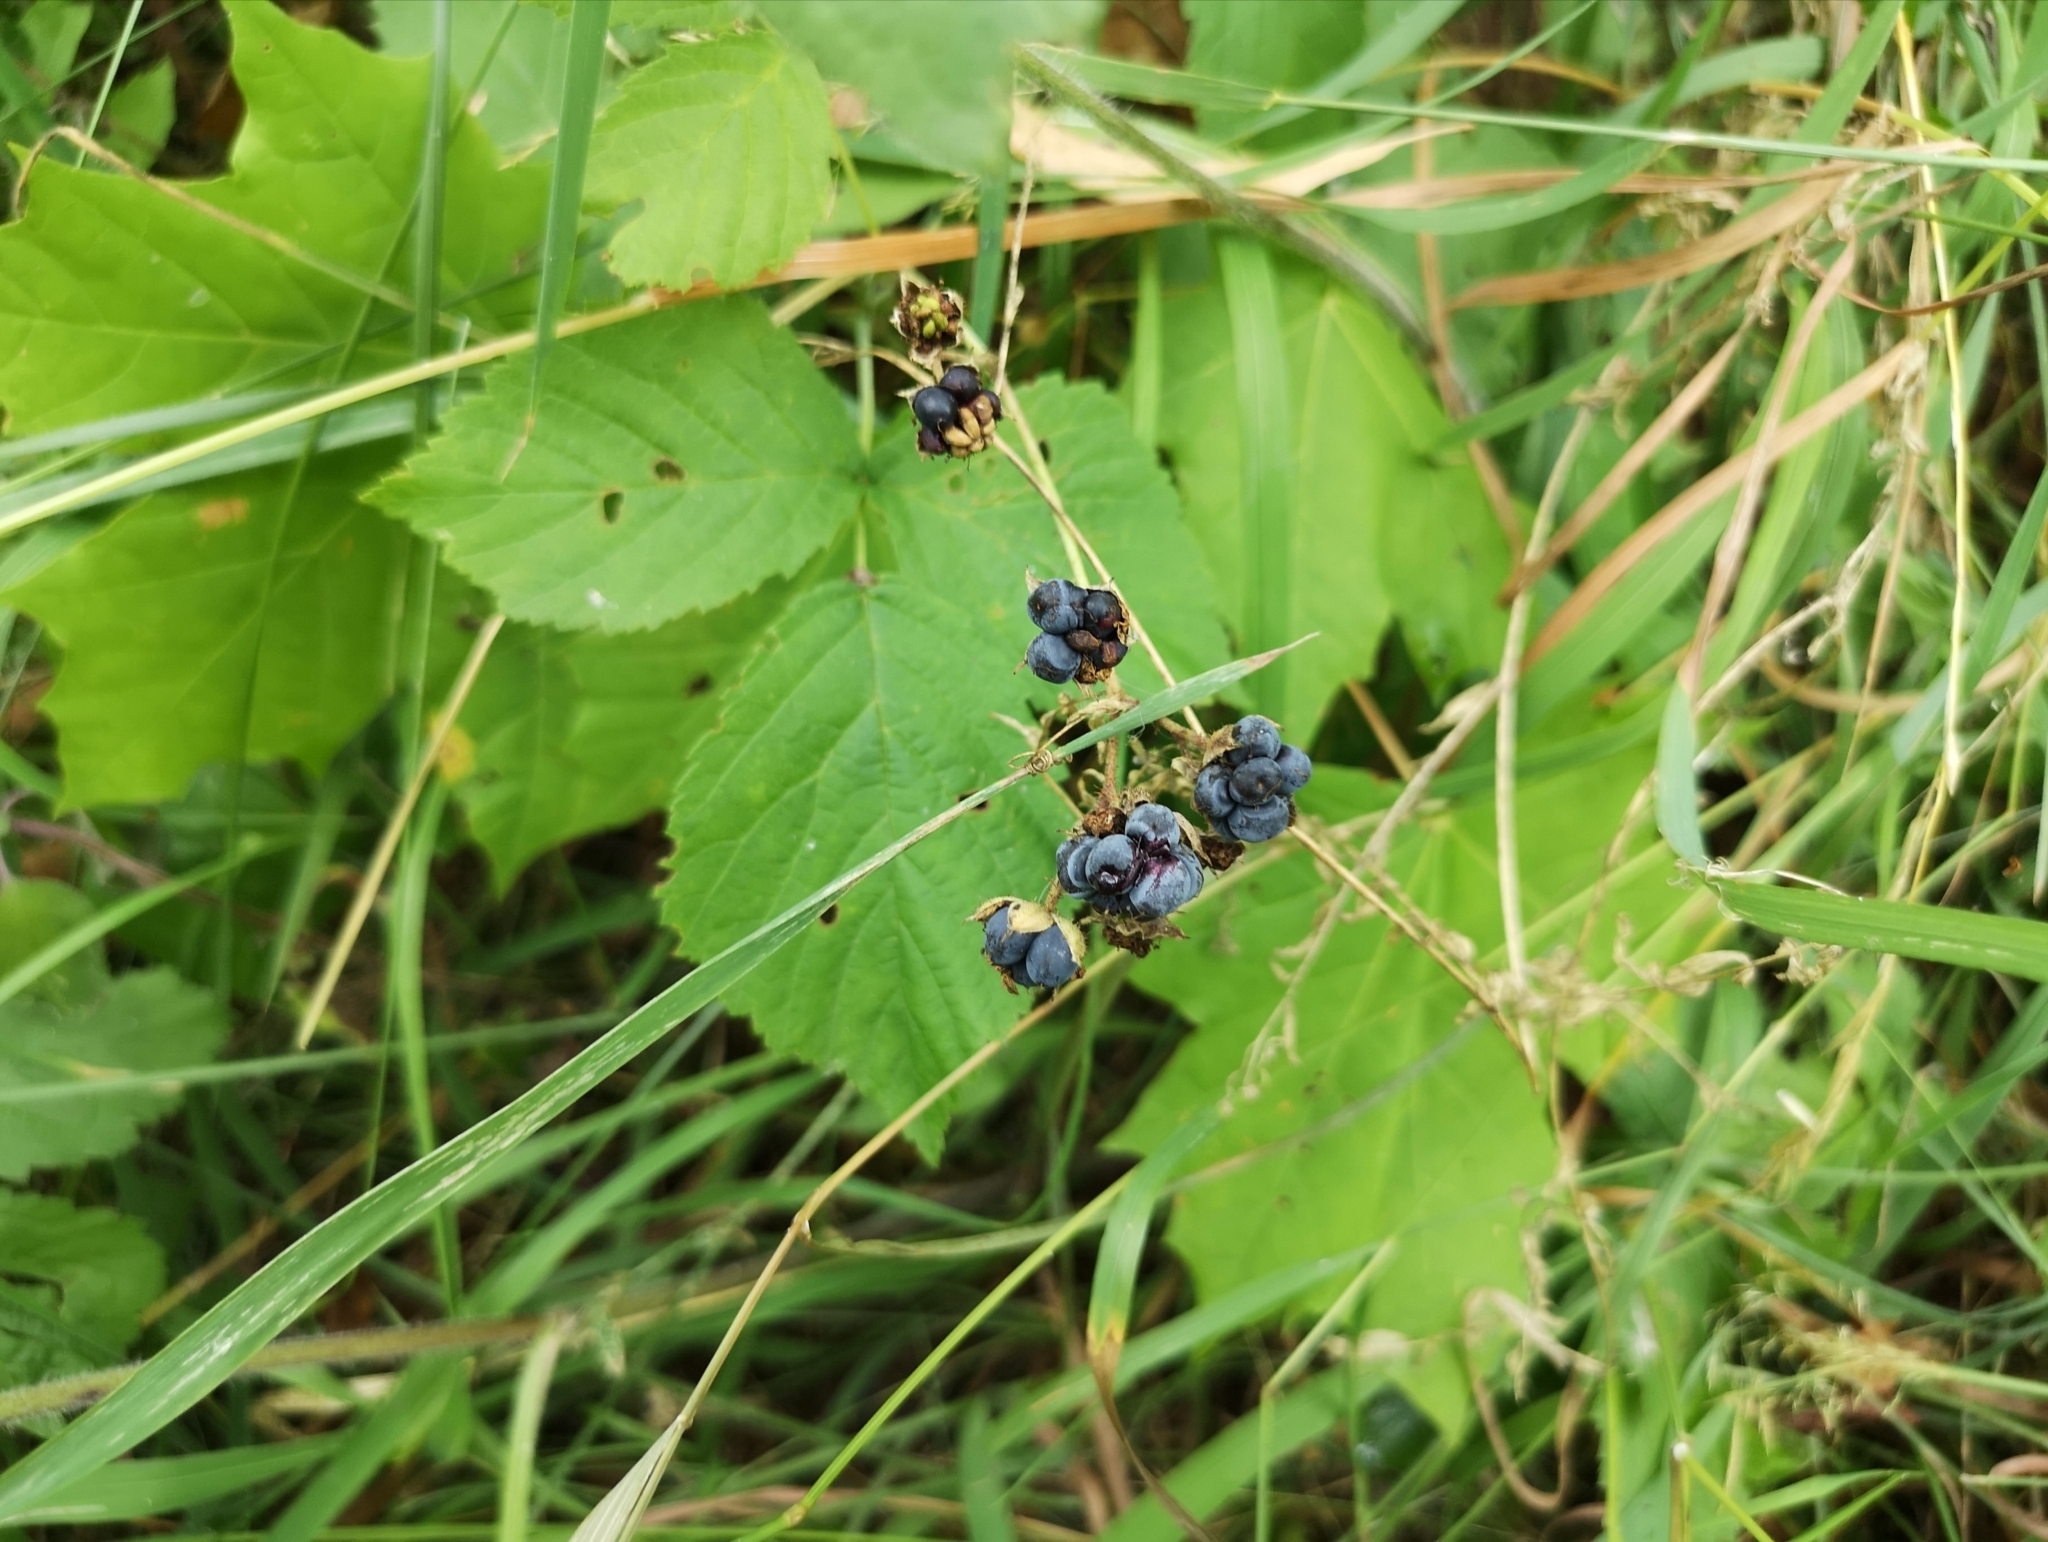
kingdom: Plantae
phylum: Tracheophyta
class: Magnoliopsida
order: Rosales
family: Rosaceae
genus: Rubus
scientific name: Rubus caesius
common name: Dewberry
